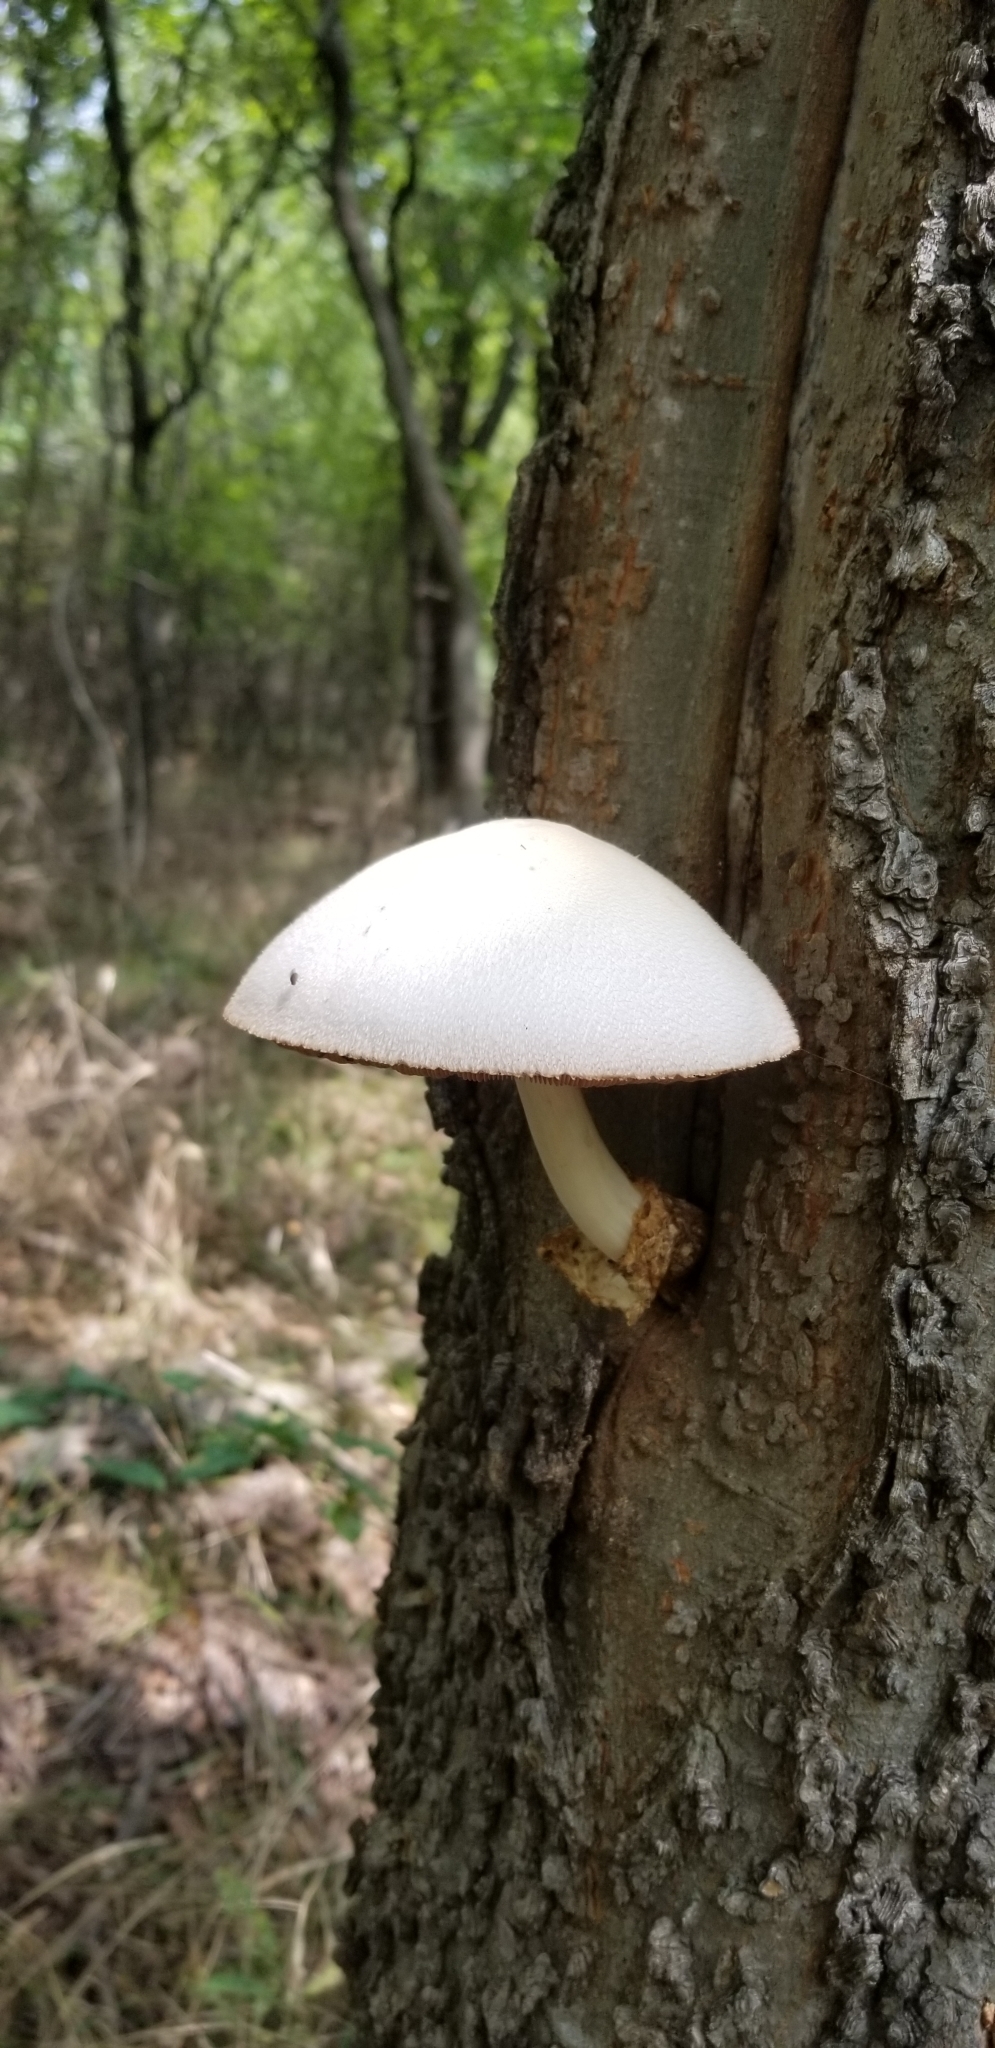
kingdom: Fungi
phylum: Basidiomycota
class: Agaricomycetes
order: Agaricales
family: Pluteaceae
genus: Volvariella
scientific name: Volvariella bombycina
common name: Silky rosegill
